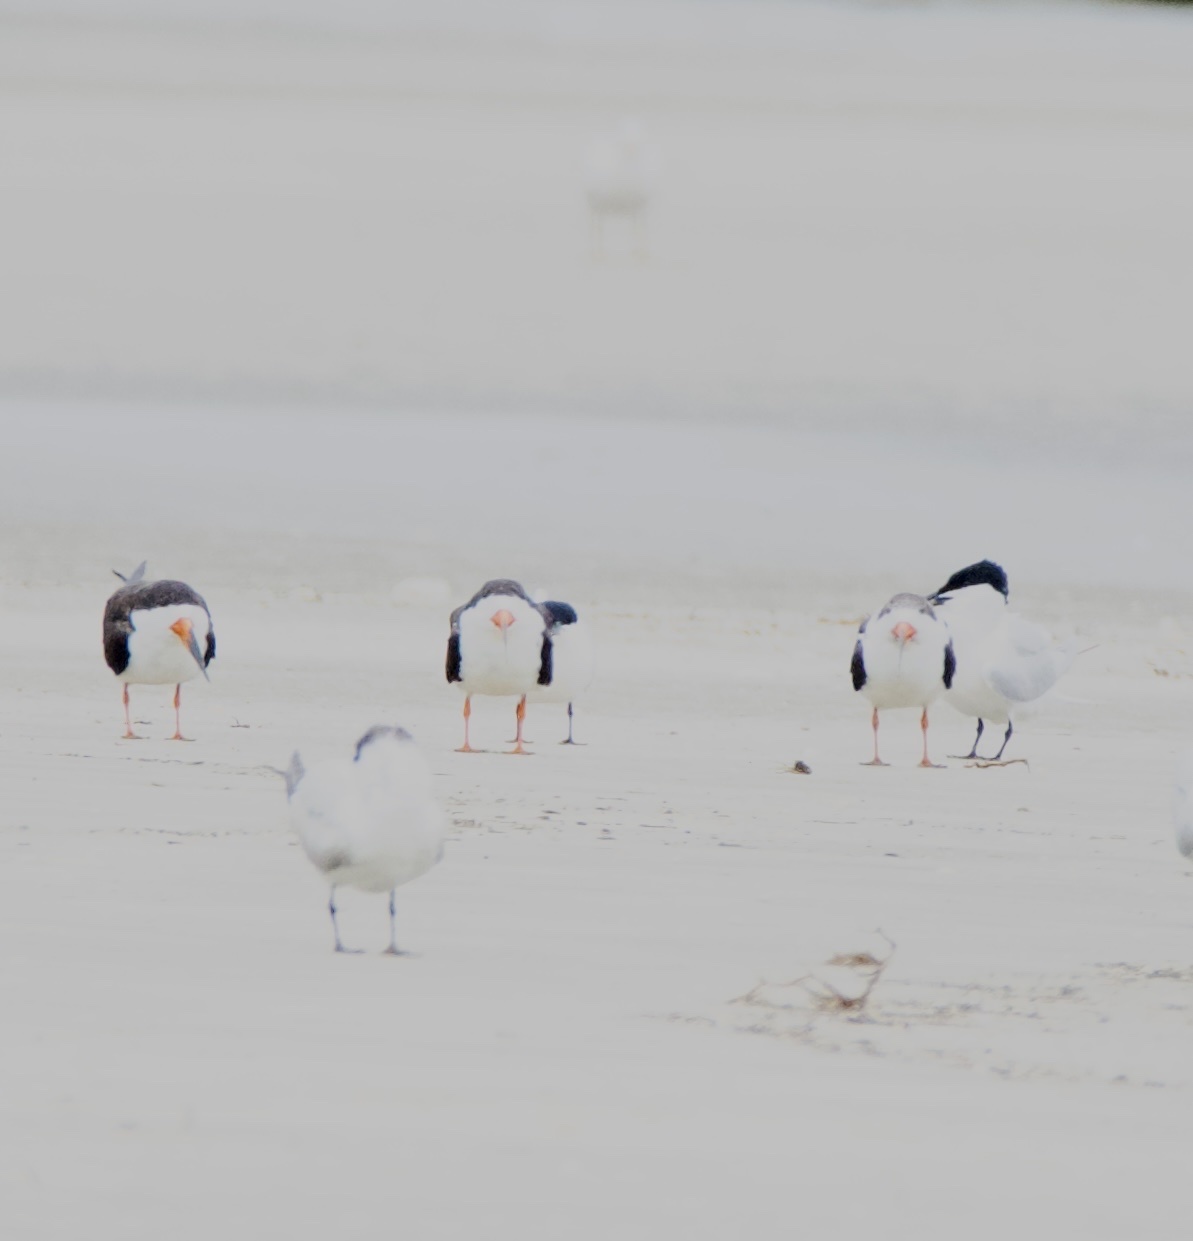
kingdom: Animalia
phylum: Chordata
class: Aves
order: Charadriiformes
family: Laridae
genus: Rynchops
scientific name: Rynchops niger
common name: Black skimmer
